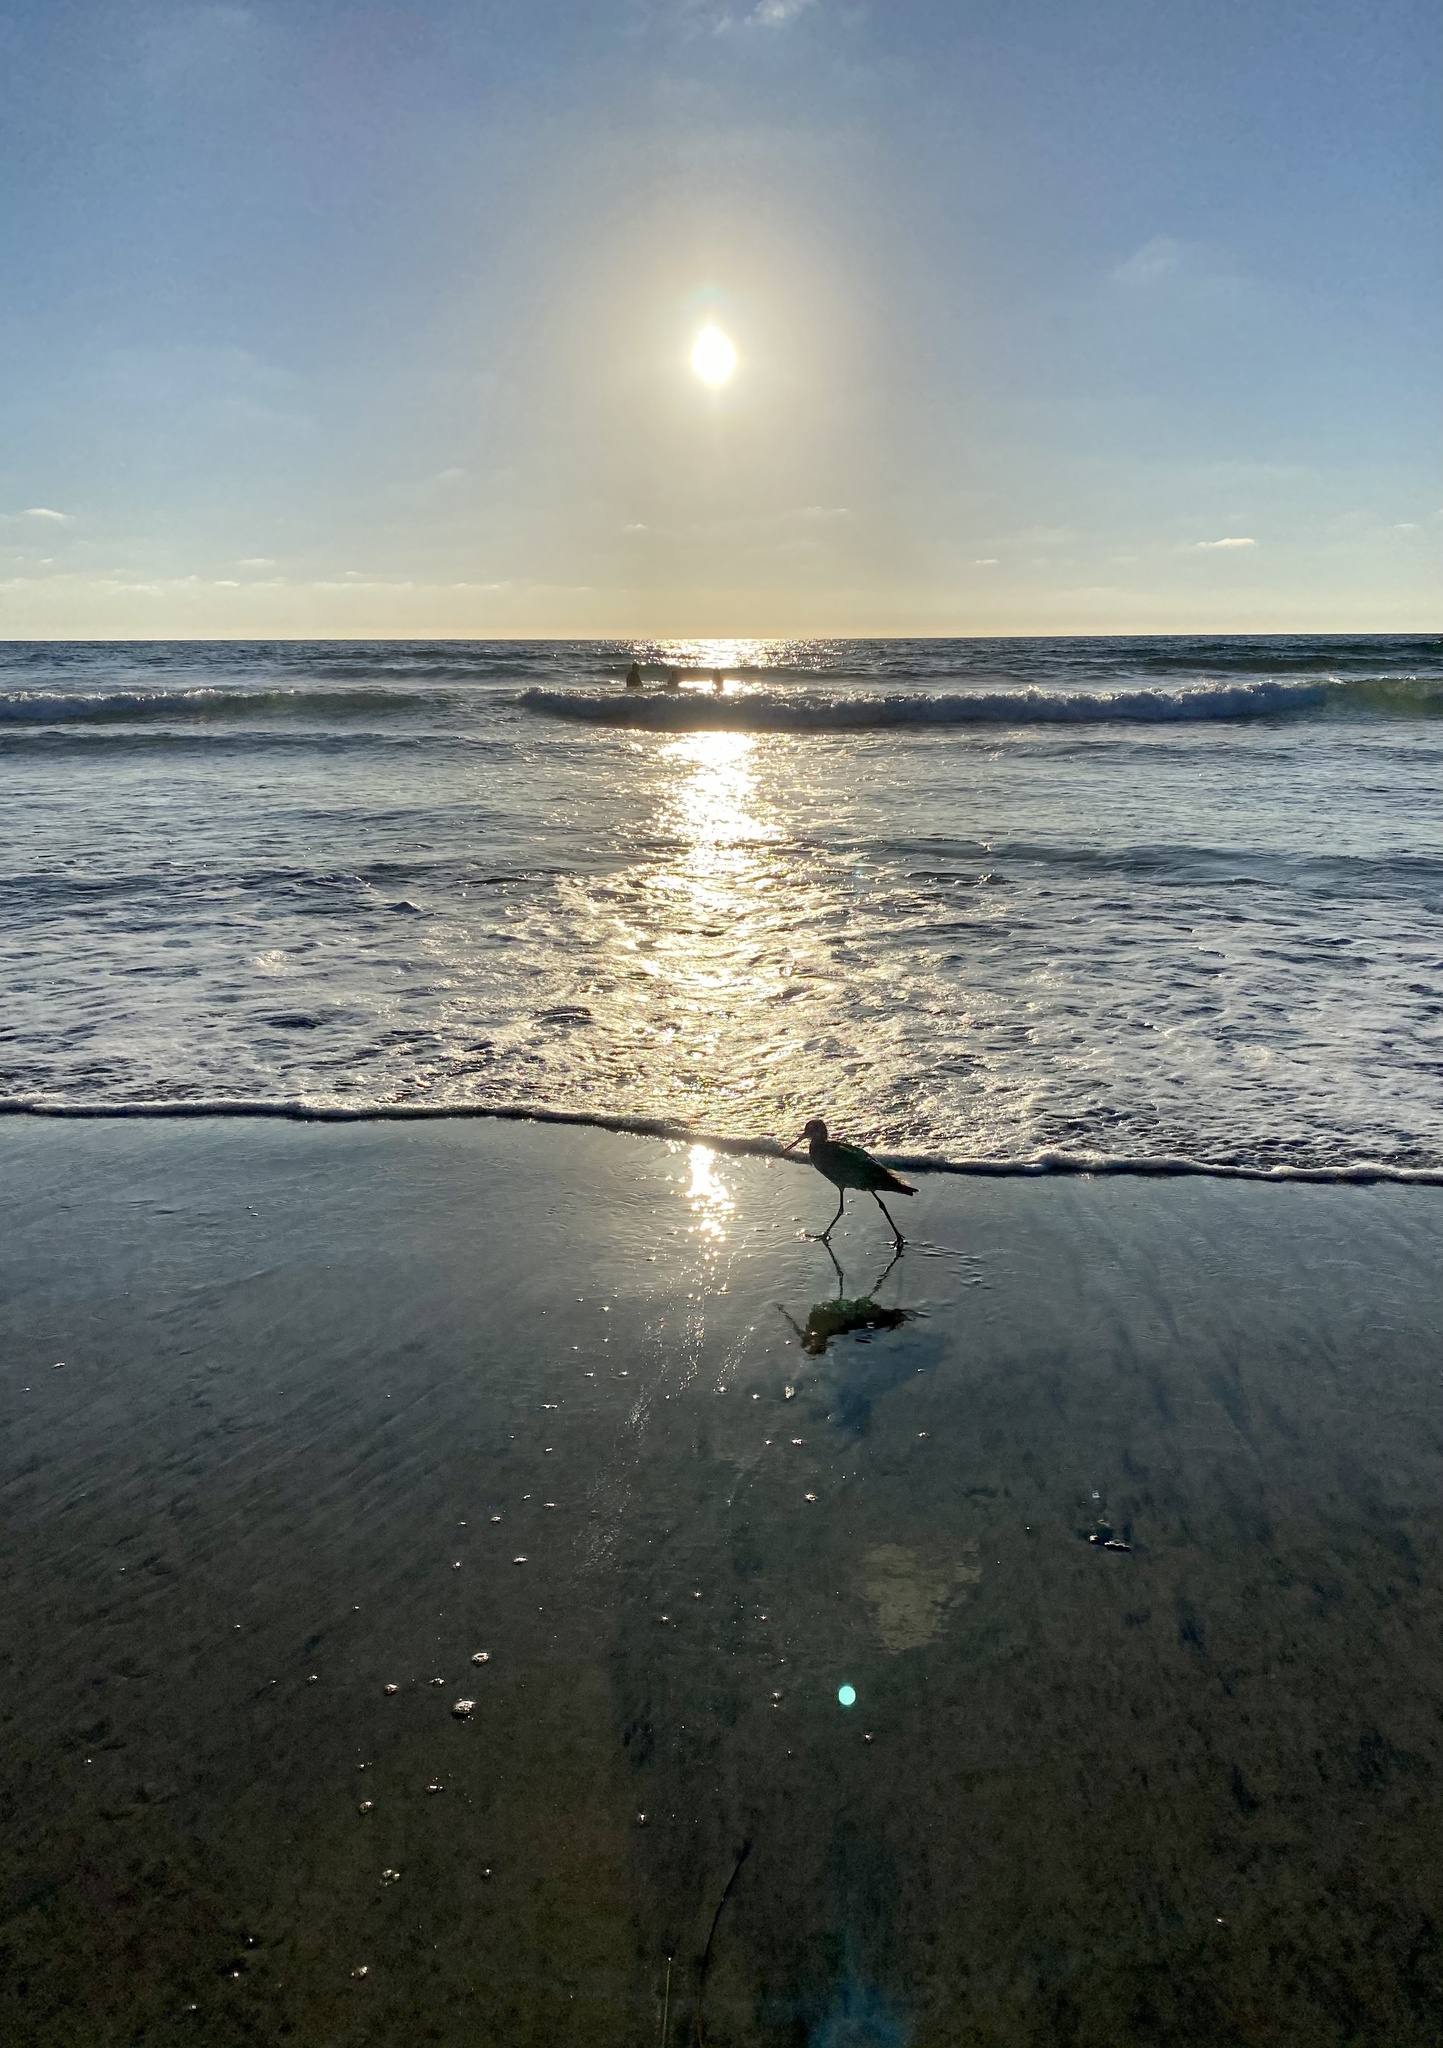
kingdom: Animalia
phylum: Chordata
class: Aves
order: Charadriiformes
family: Scolopacidae
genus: Limosa
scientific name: Limosa fedoa
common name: Marbled godwit
